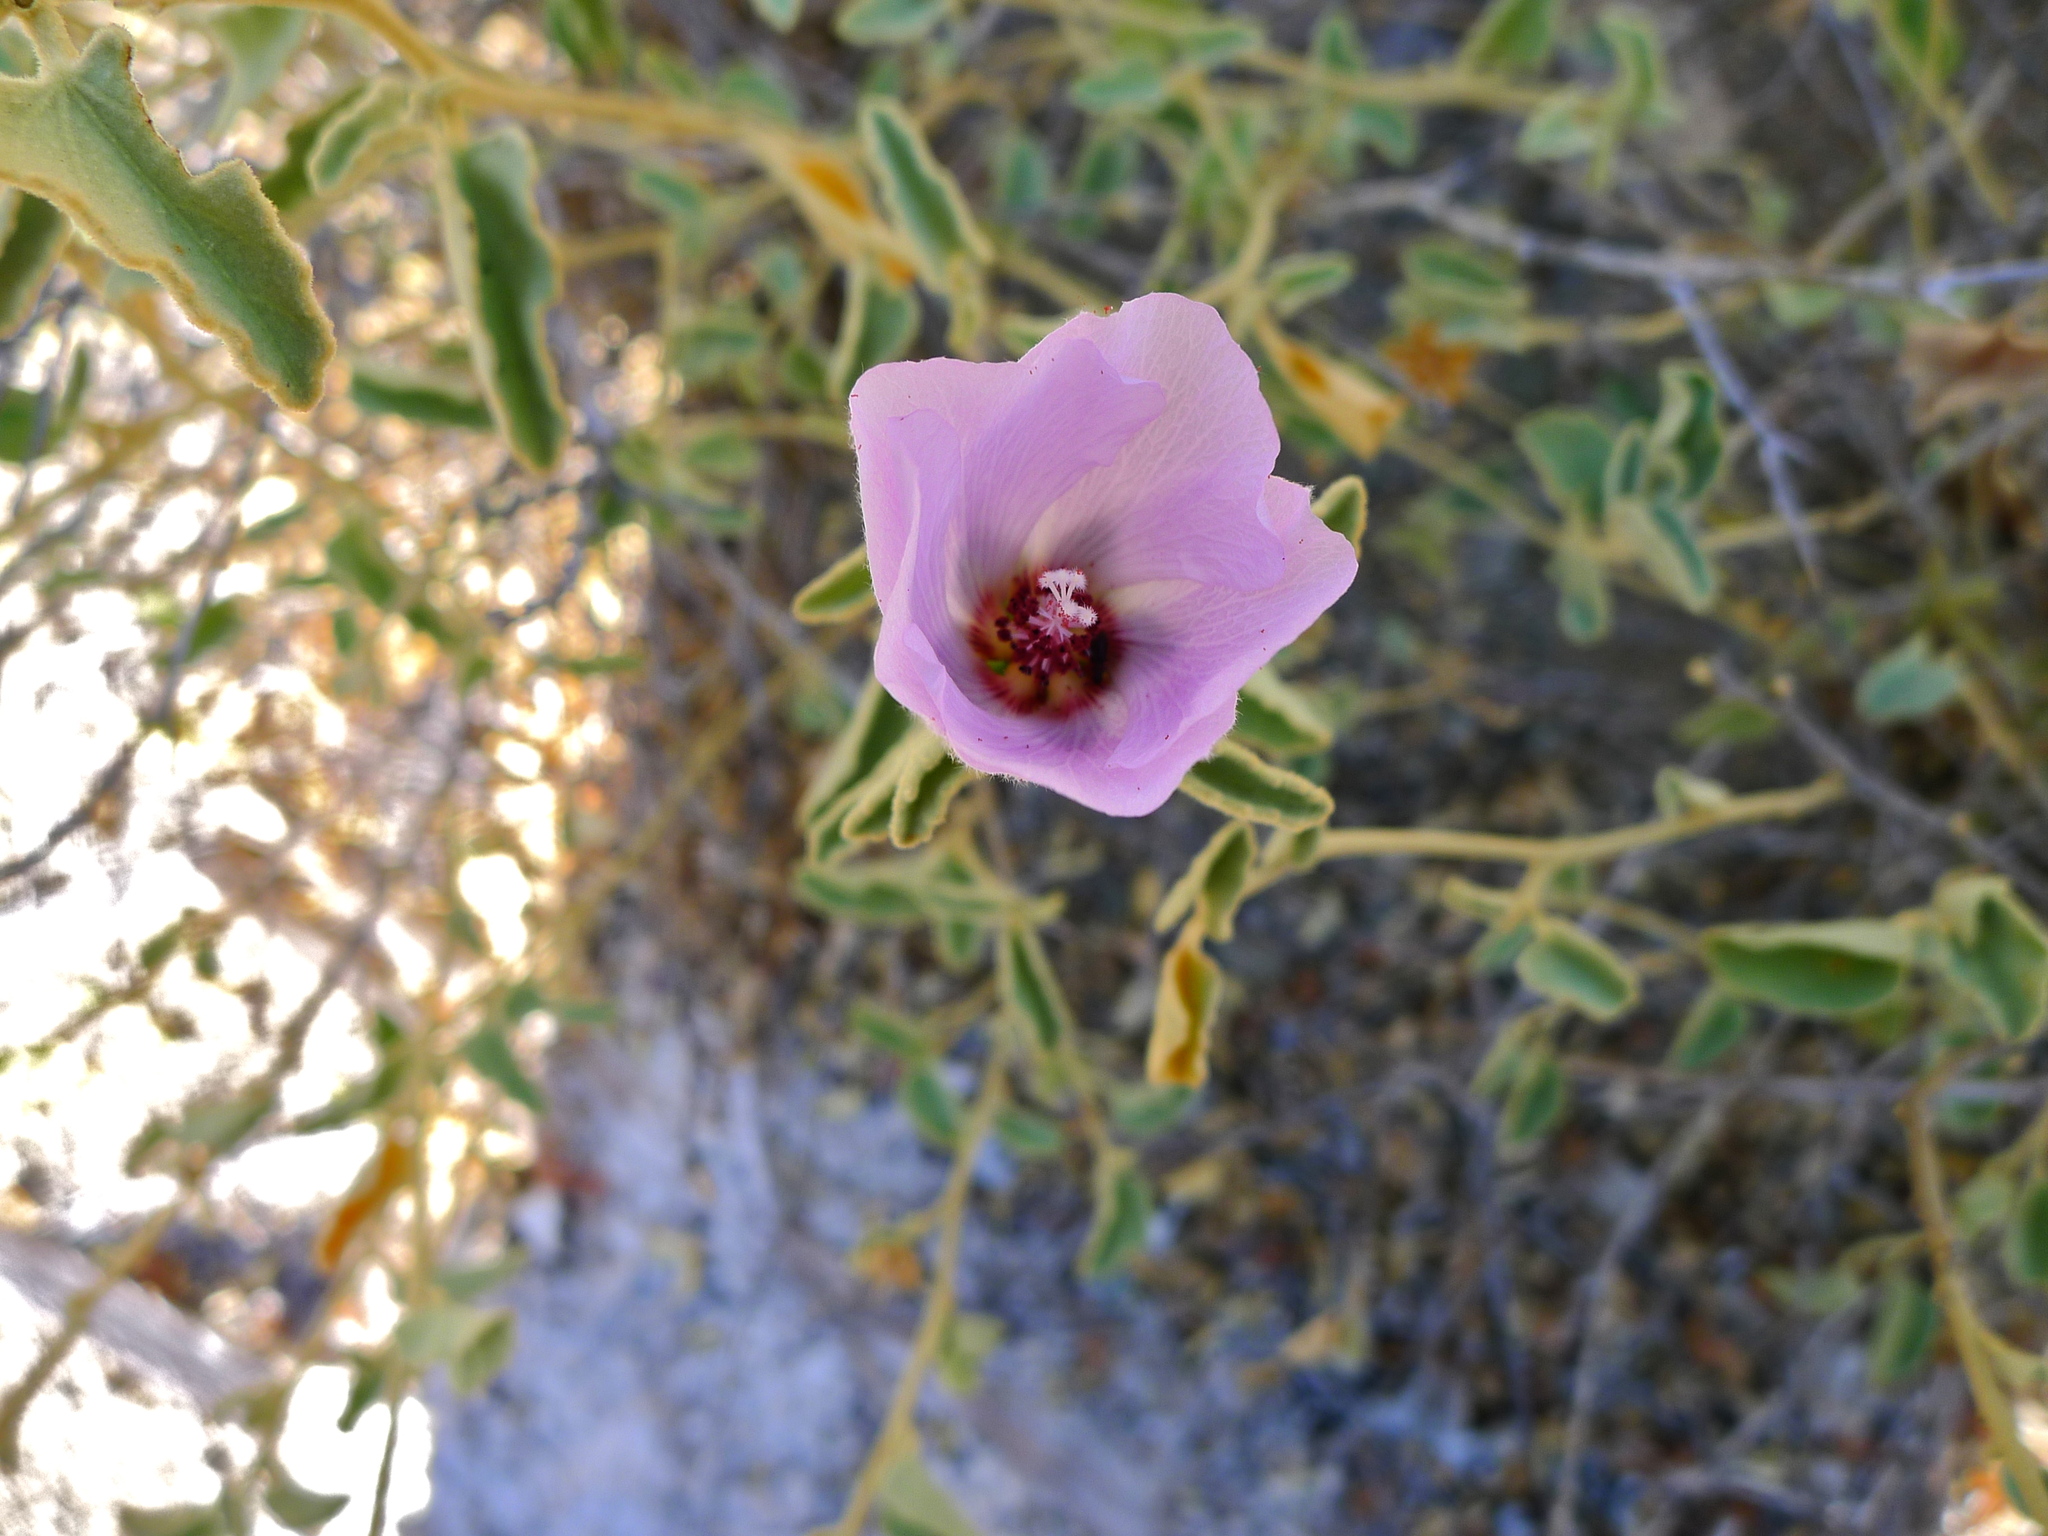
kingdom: Plantae
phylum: Tracheophyta
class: Magnoliopsida
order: Malvales
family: Malvaceae
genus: Hibiscus
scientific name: Hibiscus denudatus
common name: Paleface
